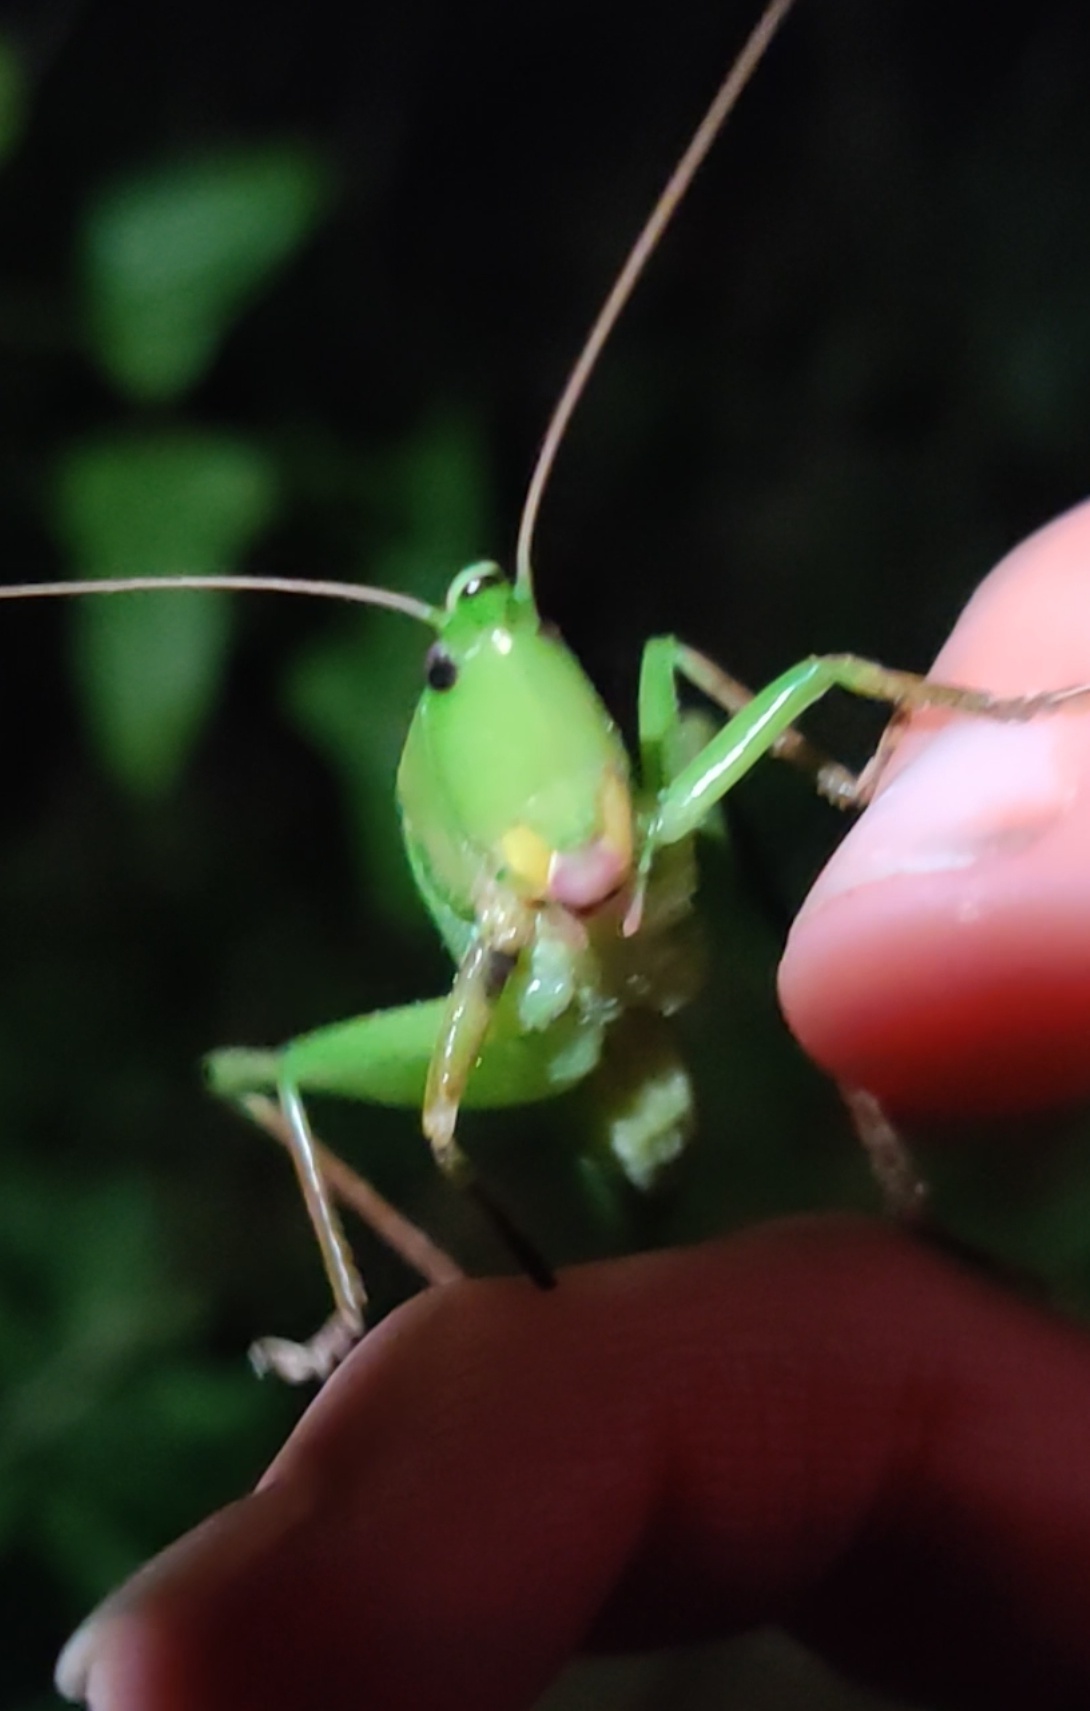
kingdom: Animalia
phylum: Arthropoda
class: Insecta
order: Orthoptera
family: Tettigoniidae
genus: Neoconocephalus
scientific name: Neoconocephalus triops
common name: Broad-tipped conehead
